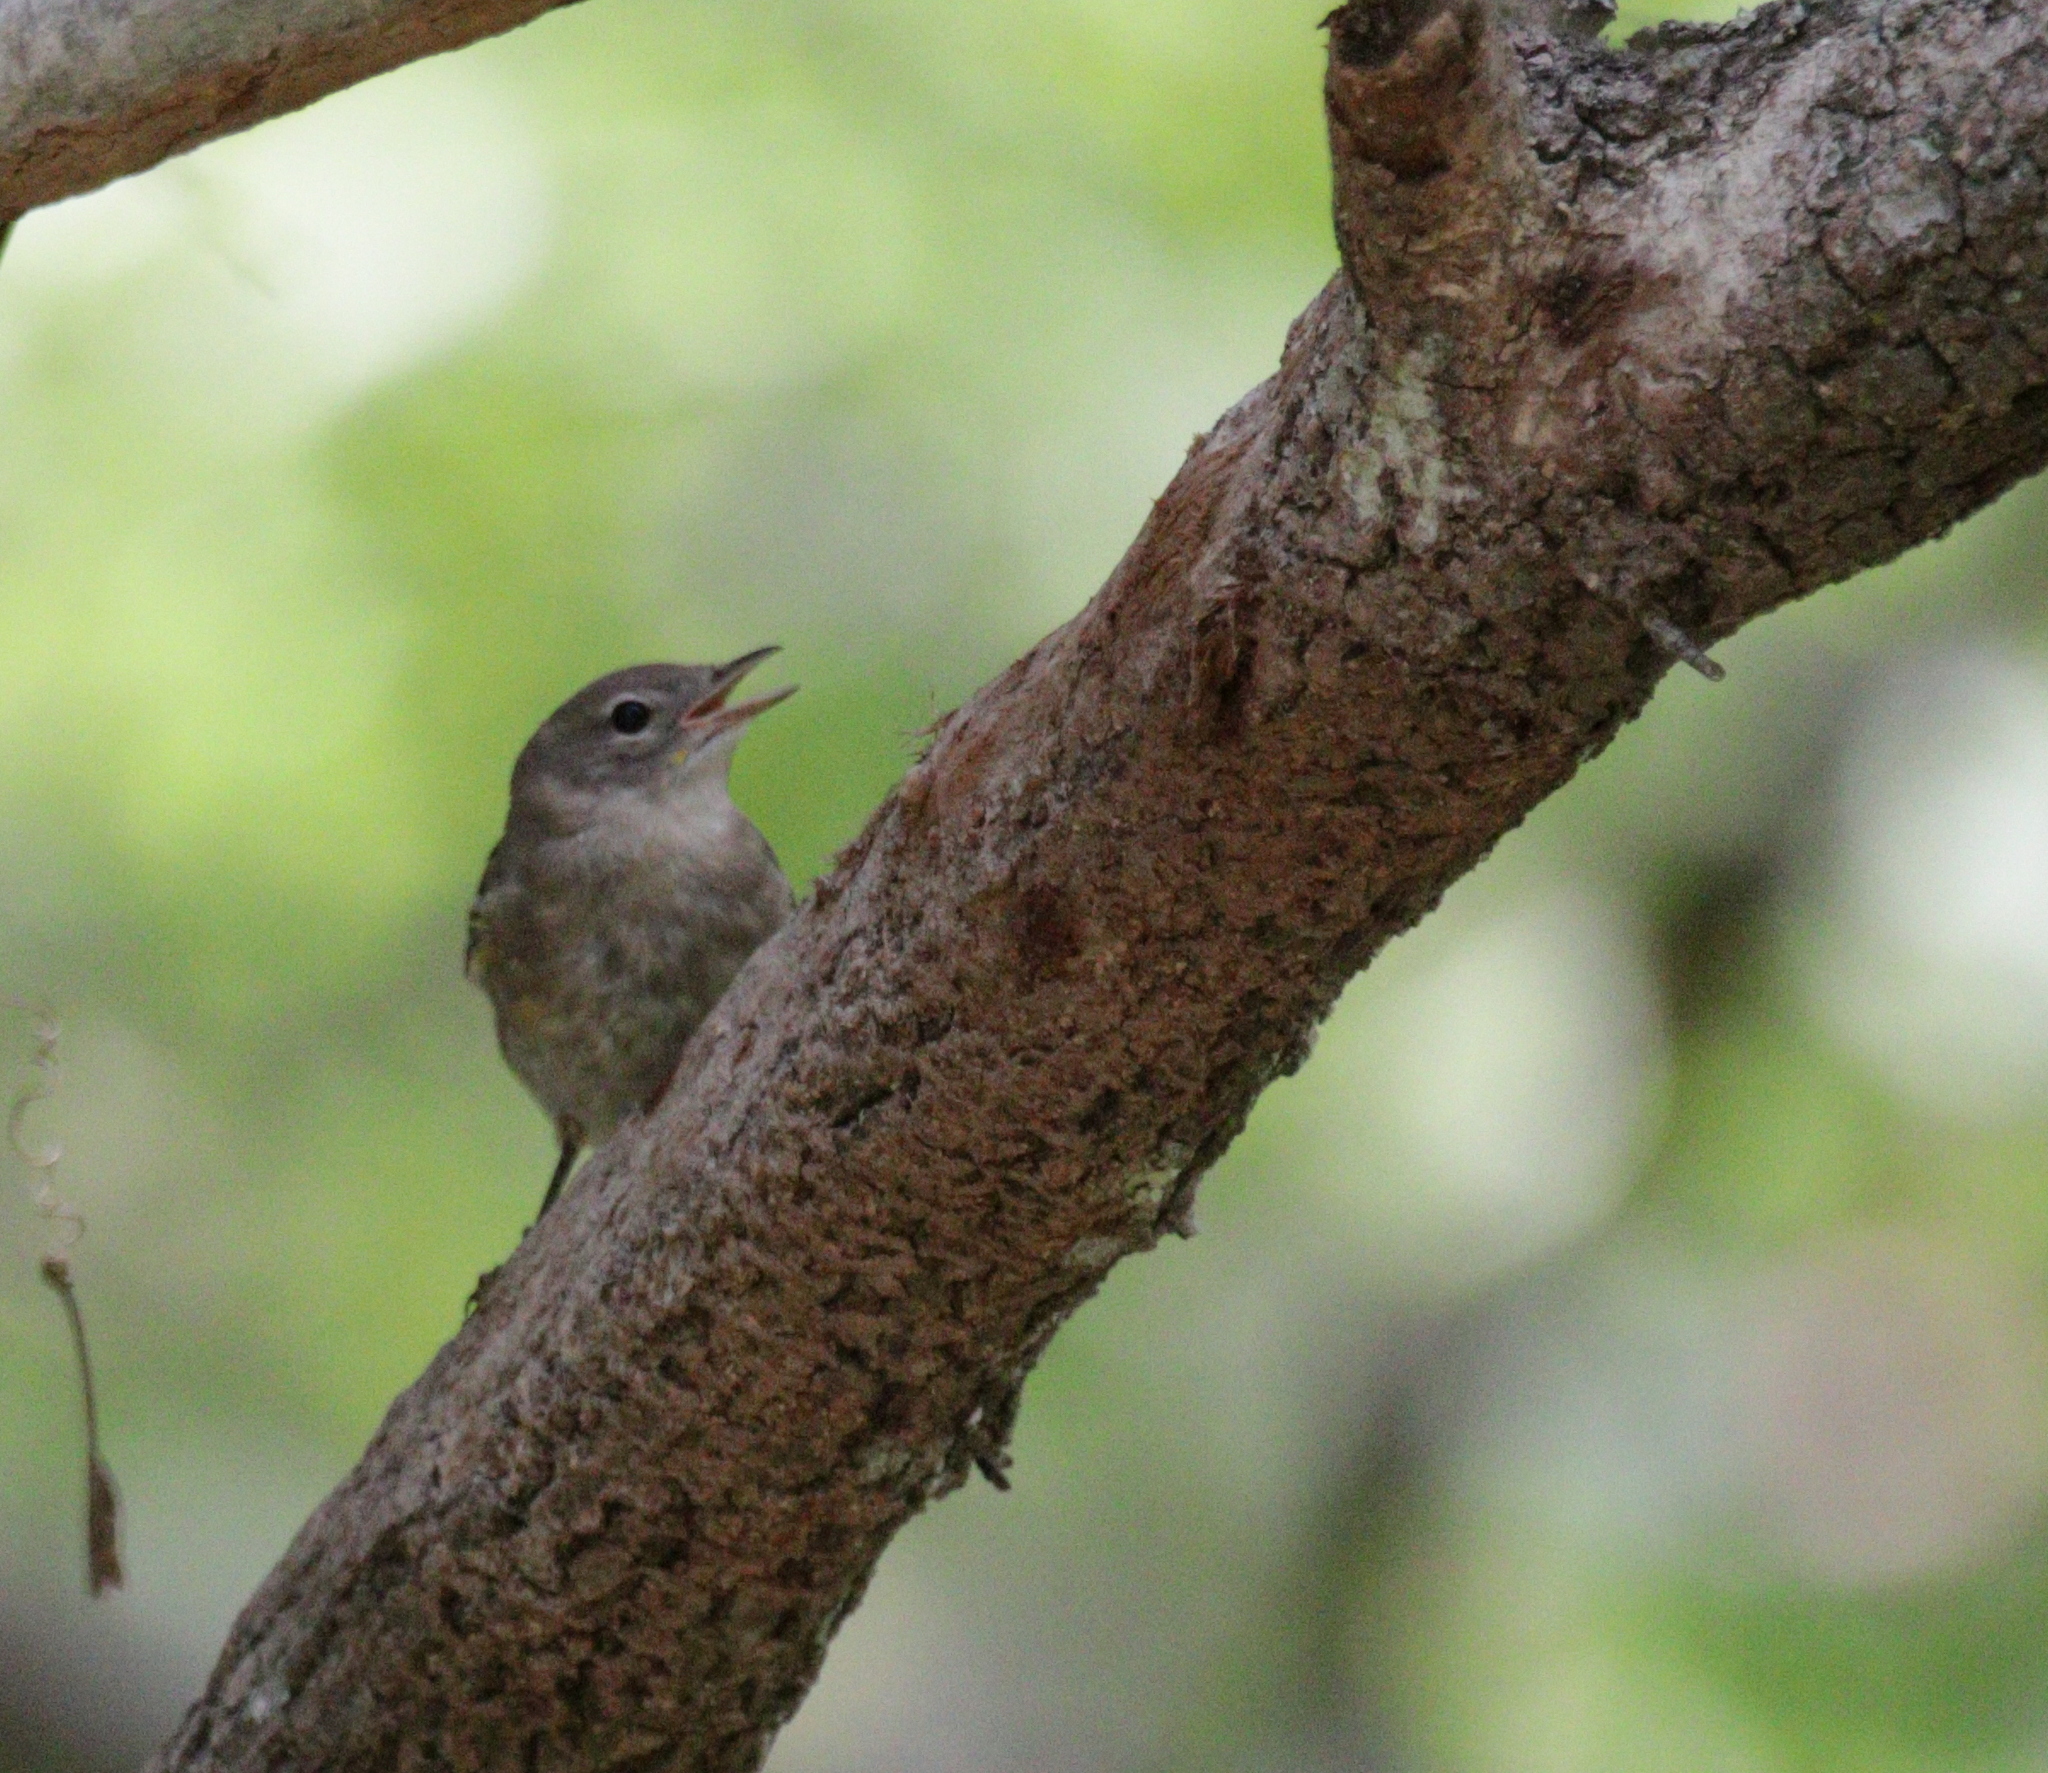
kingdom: Animalia
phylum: Chordata
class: Aves
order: Passeriformes
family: Parulidae
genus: Setophaga
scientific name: Setophaga pinus
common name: Pine warbler
